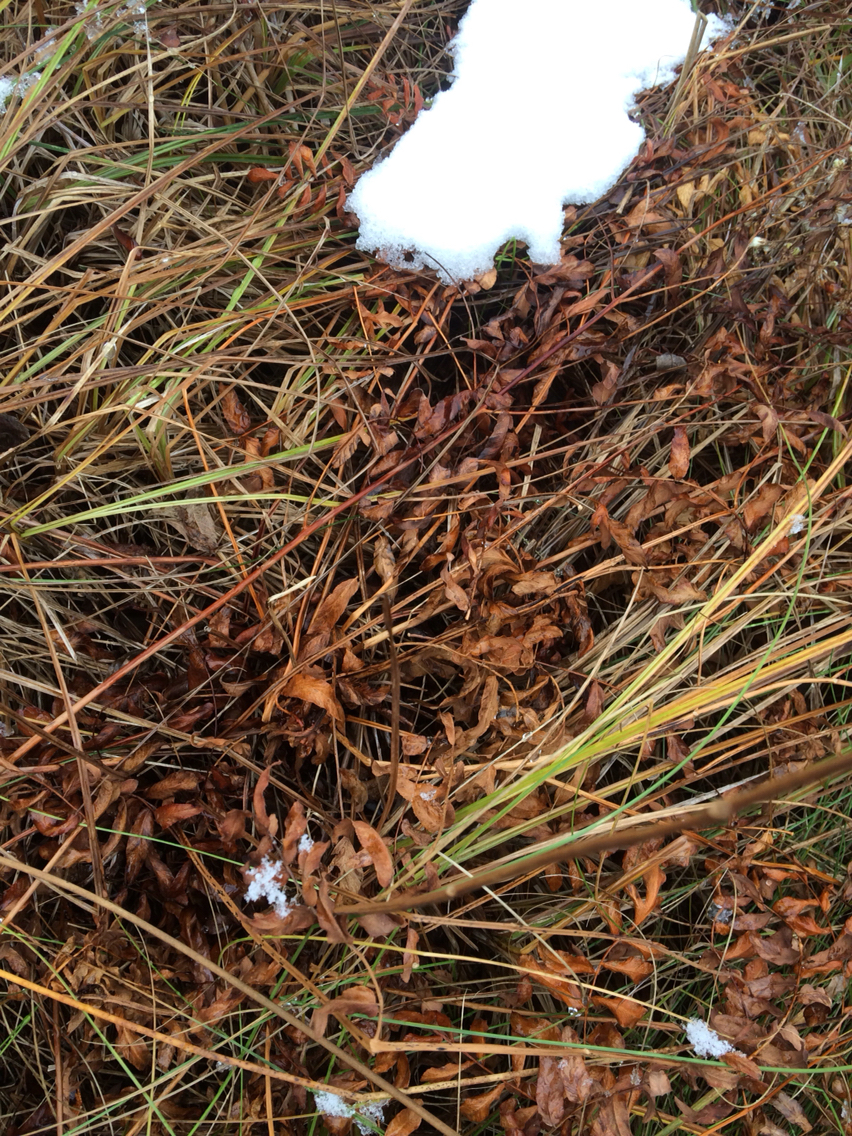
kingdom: Plantae
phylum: Tracheophyta
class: Polypodiopsida
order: Osmundales
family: Osmundaceae
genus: Osmunda
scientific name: Osmunda spectabilis
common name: American royal fern
